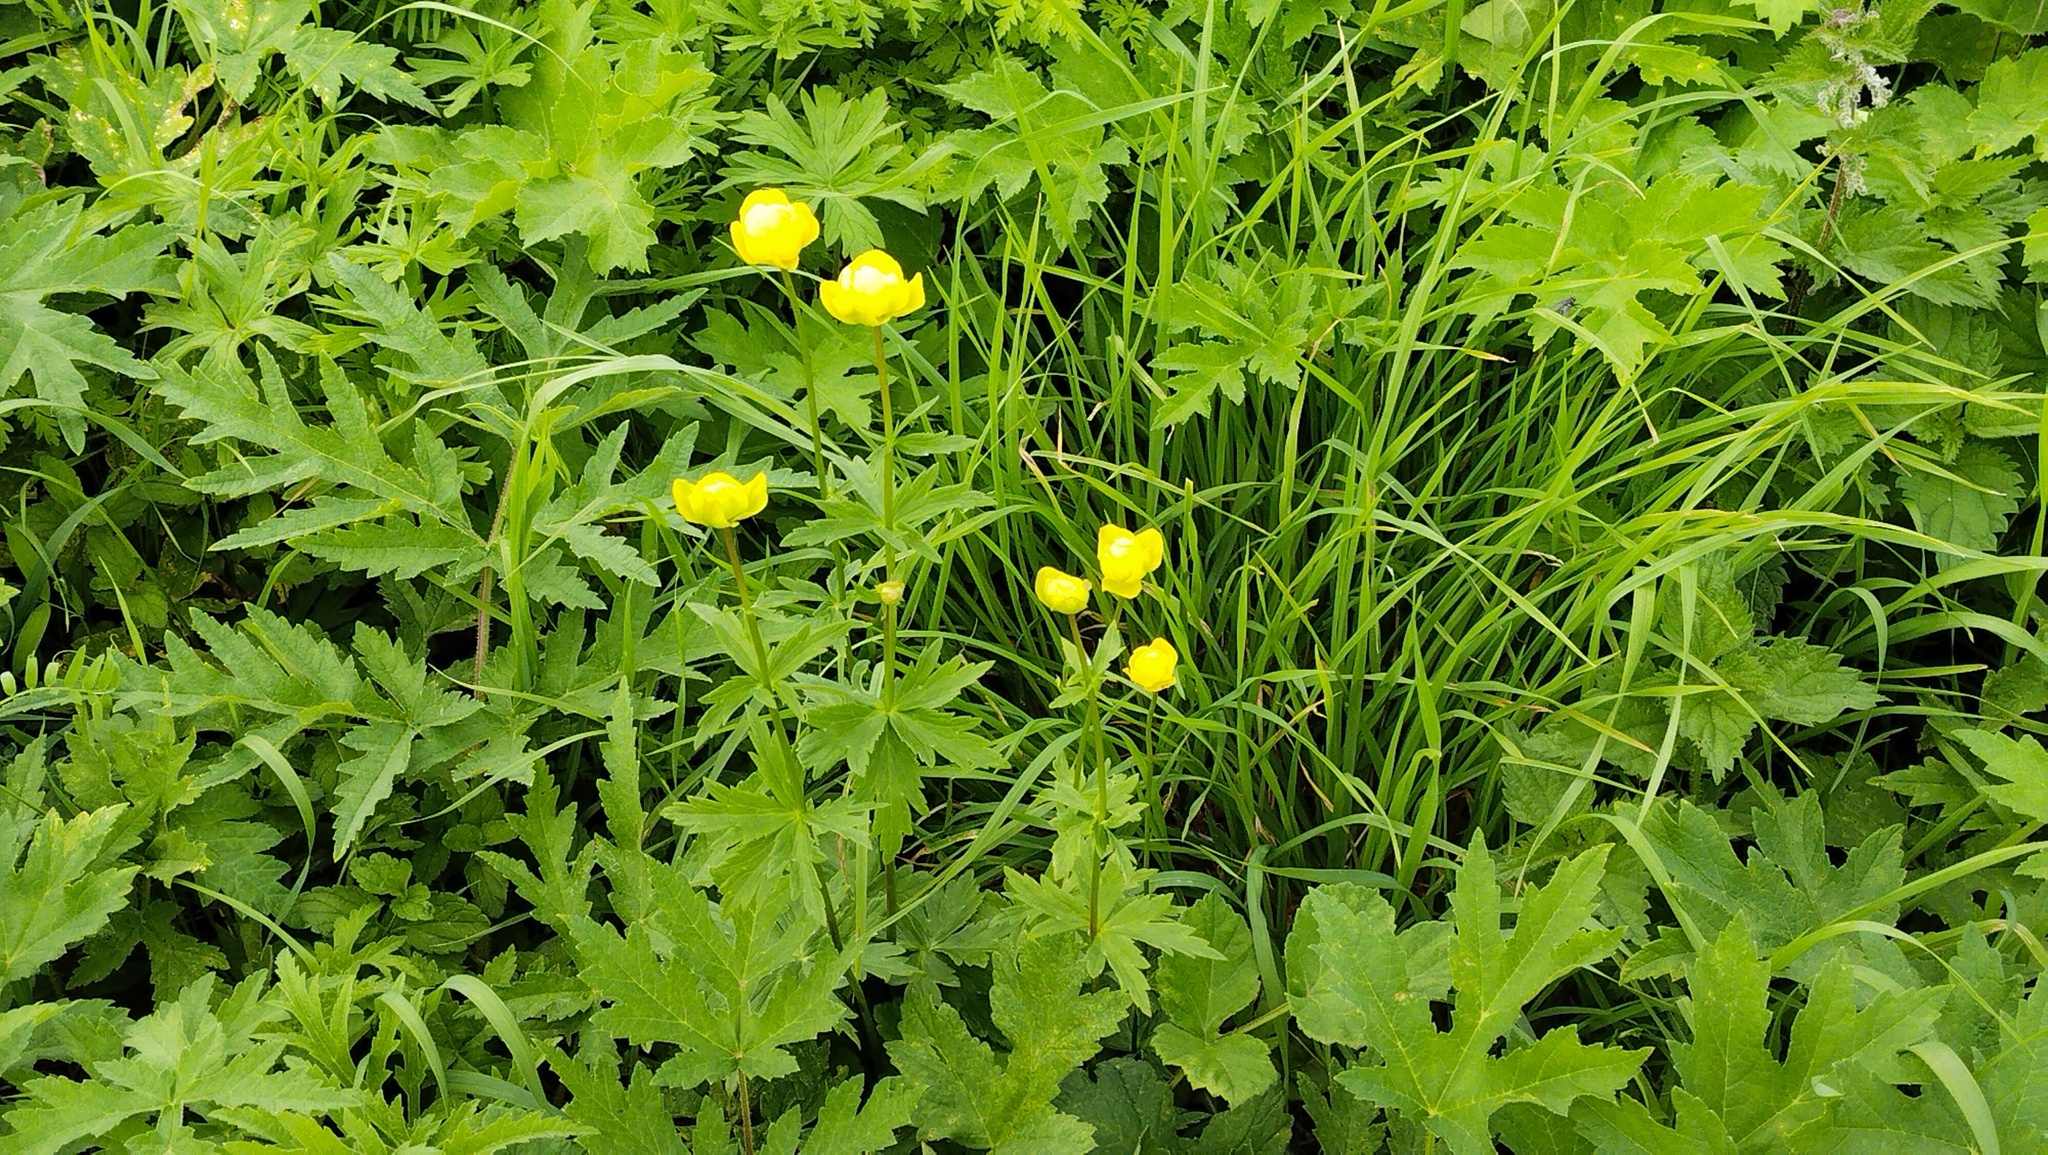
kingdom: Plantae
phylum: Tracheophyta
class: Magnoliopsida
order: Ranunculales
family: Ranunculaceae
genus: Trollius
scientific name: Trollius europaeus
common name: European globeflower
